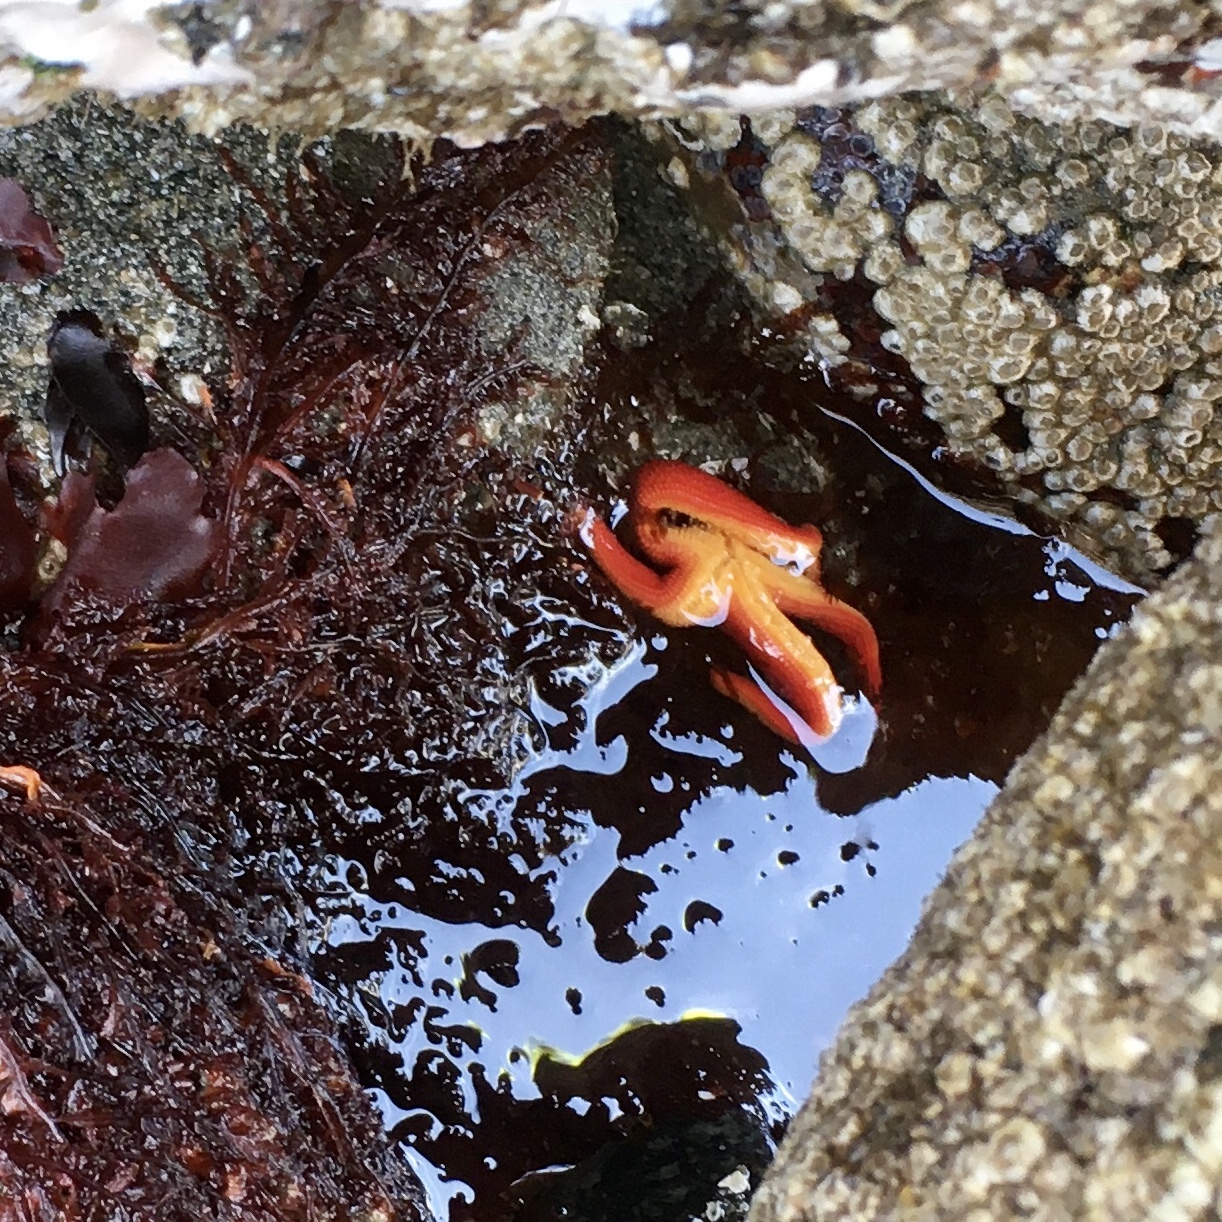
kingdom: Animalia
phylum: Echinodermata
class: Asteroidea
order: Spinulosida
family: Echinasteridae
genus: Henricia
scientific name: Henricia leviuscula
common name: Pacific blood star
